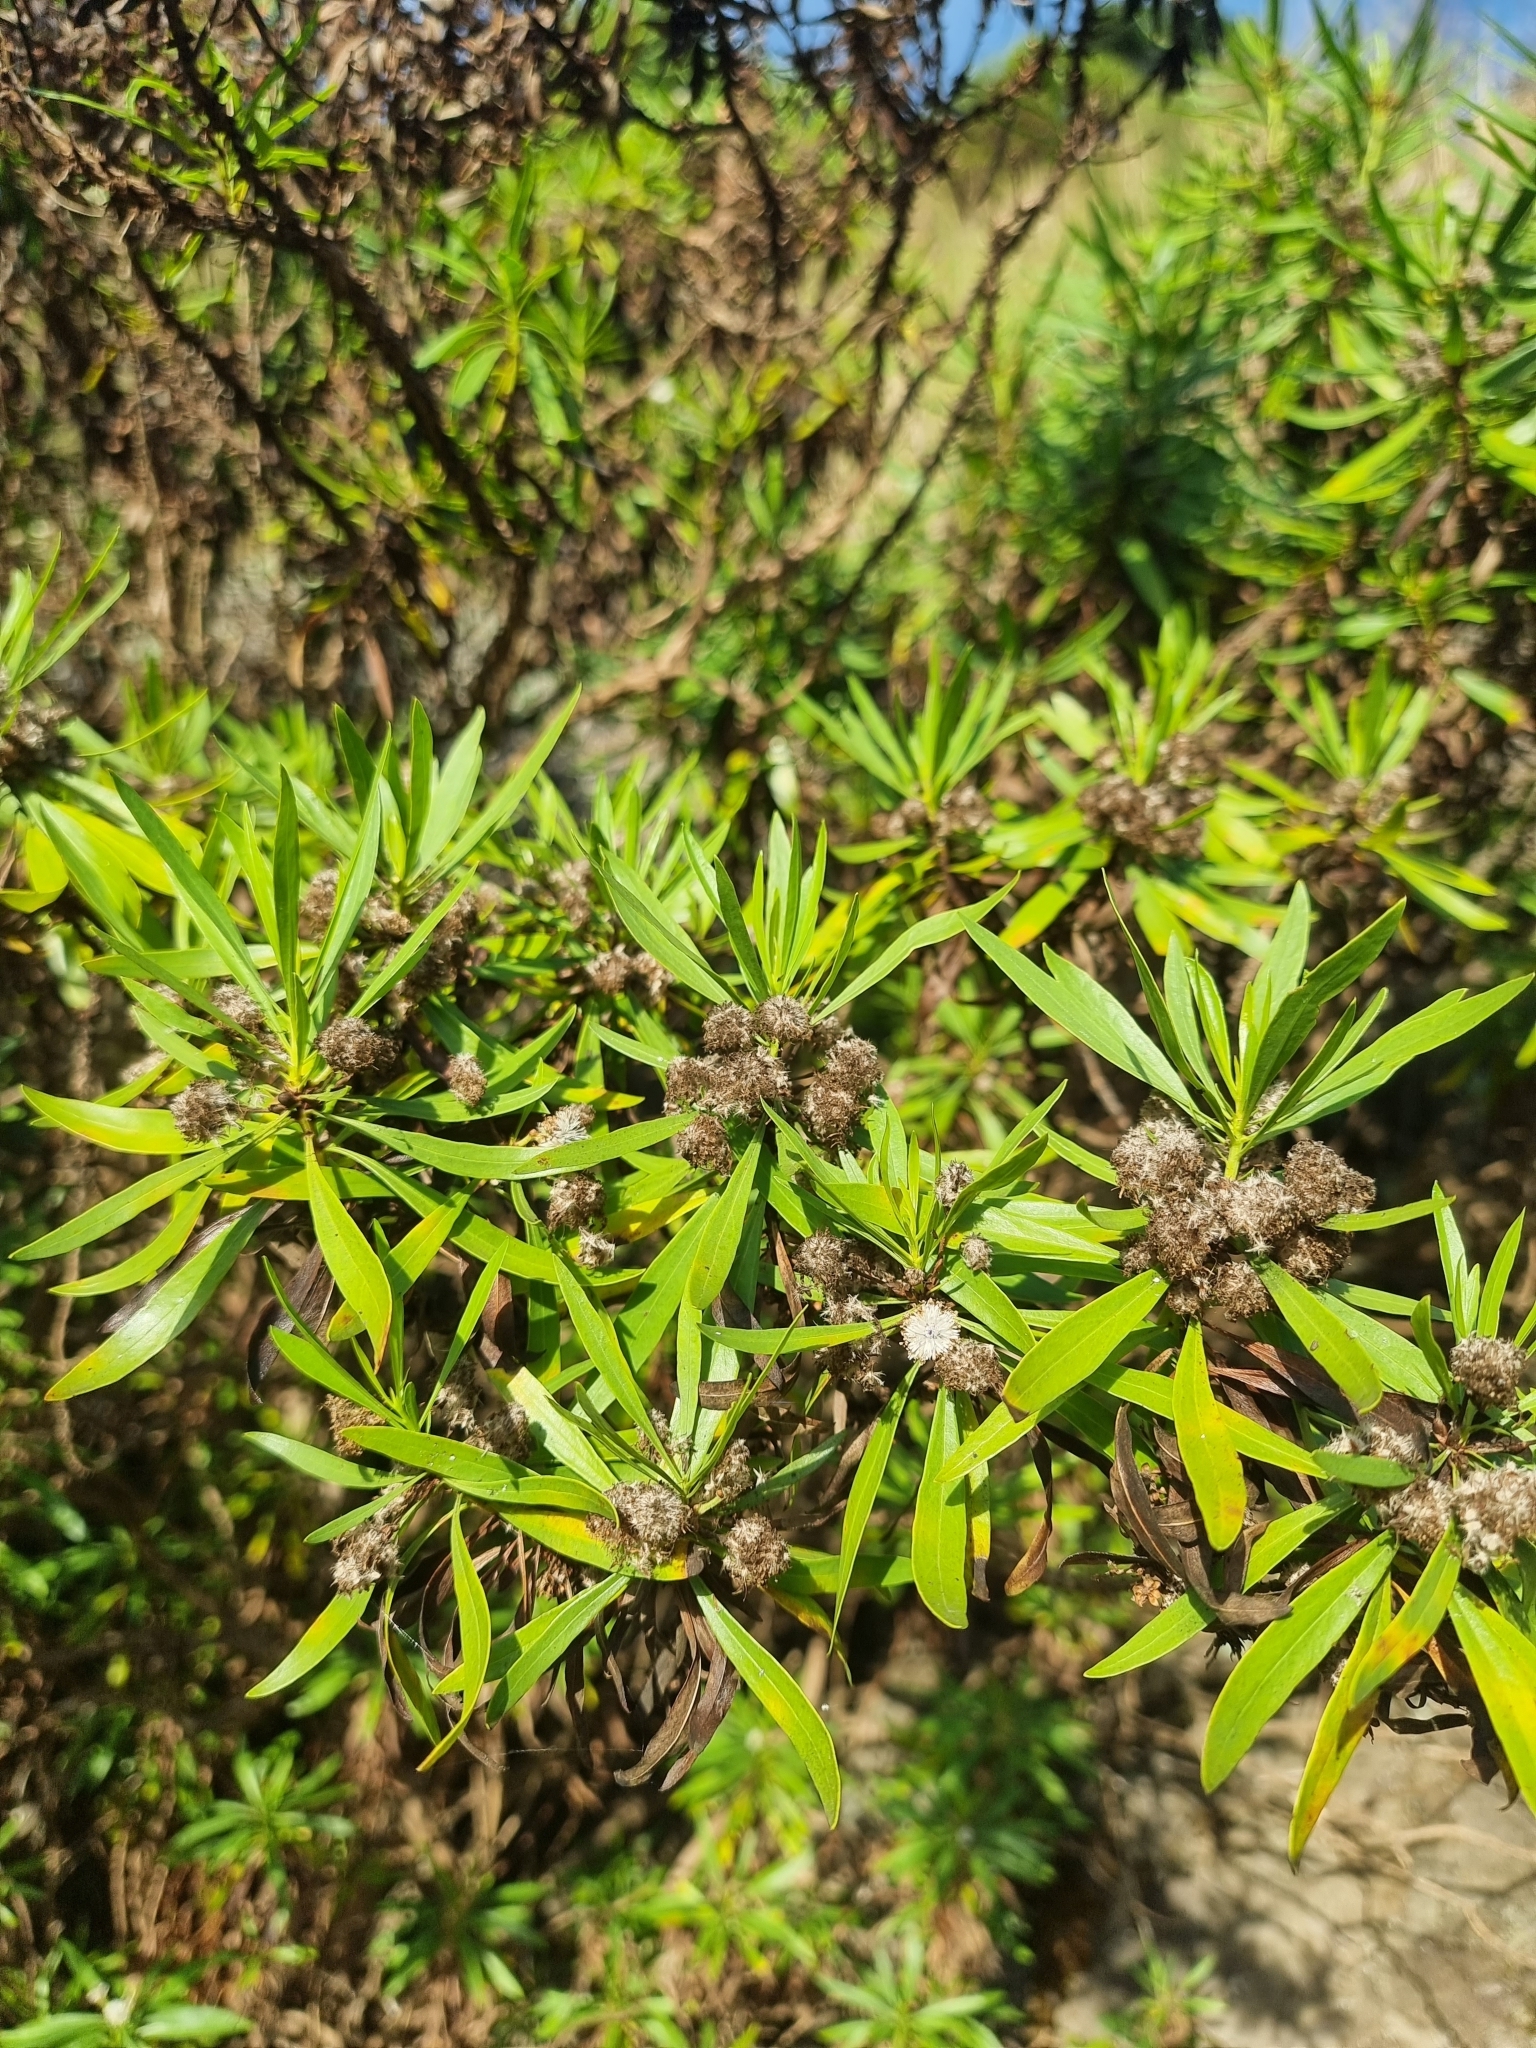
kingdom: Plantae
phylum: Tracheophyta
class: Magnoliopsida
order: Lamiales
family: Plantaginaceae
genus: Globularia
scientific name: Globularia salicina
